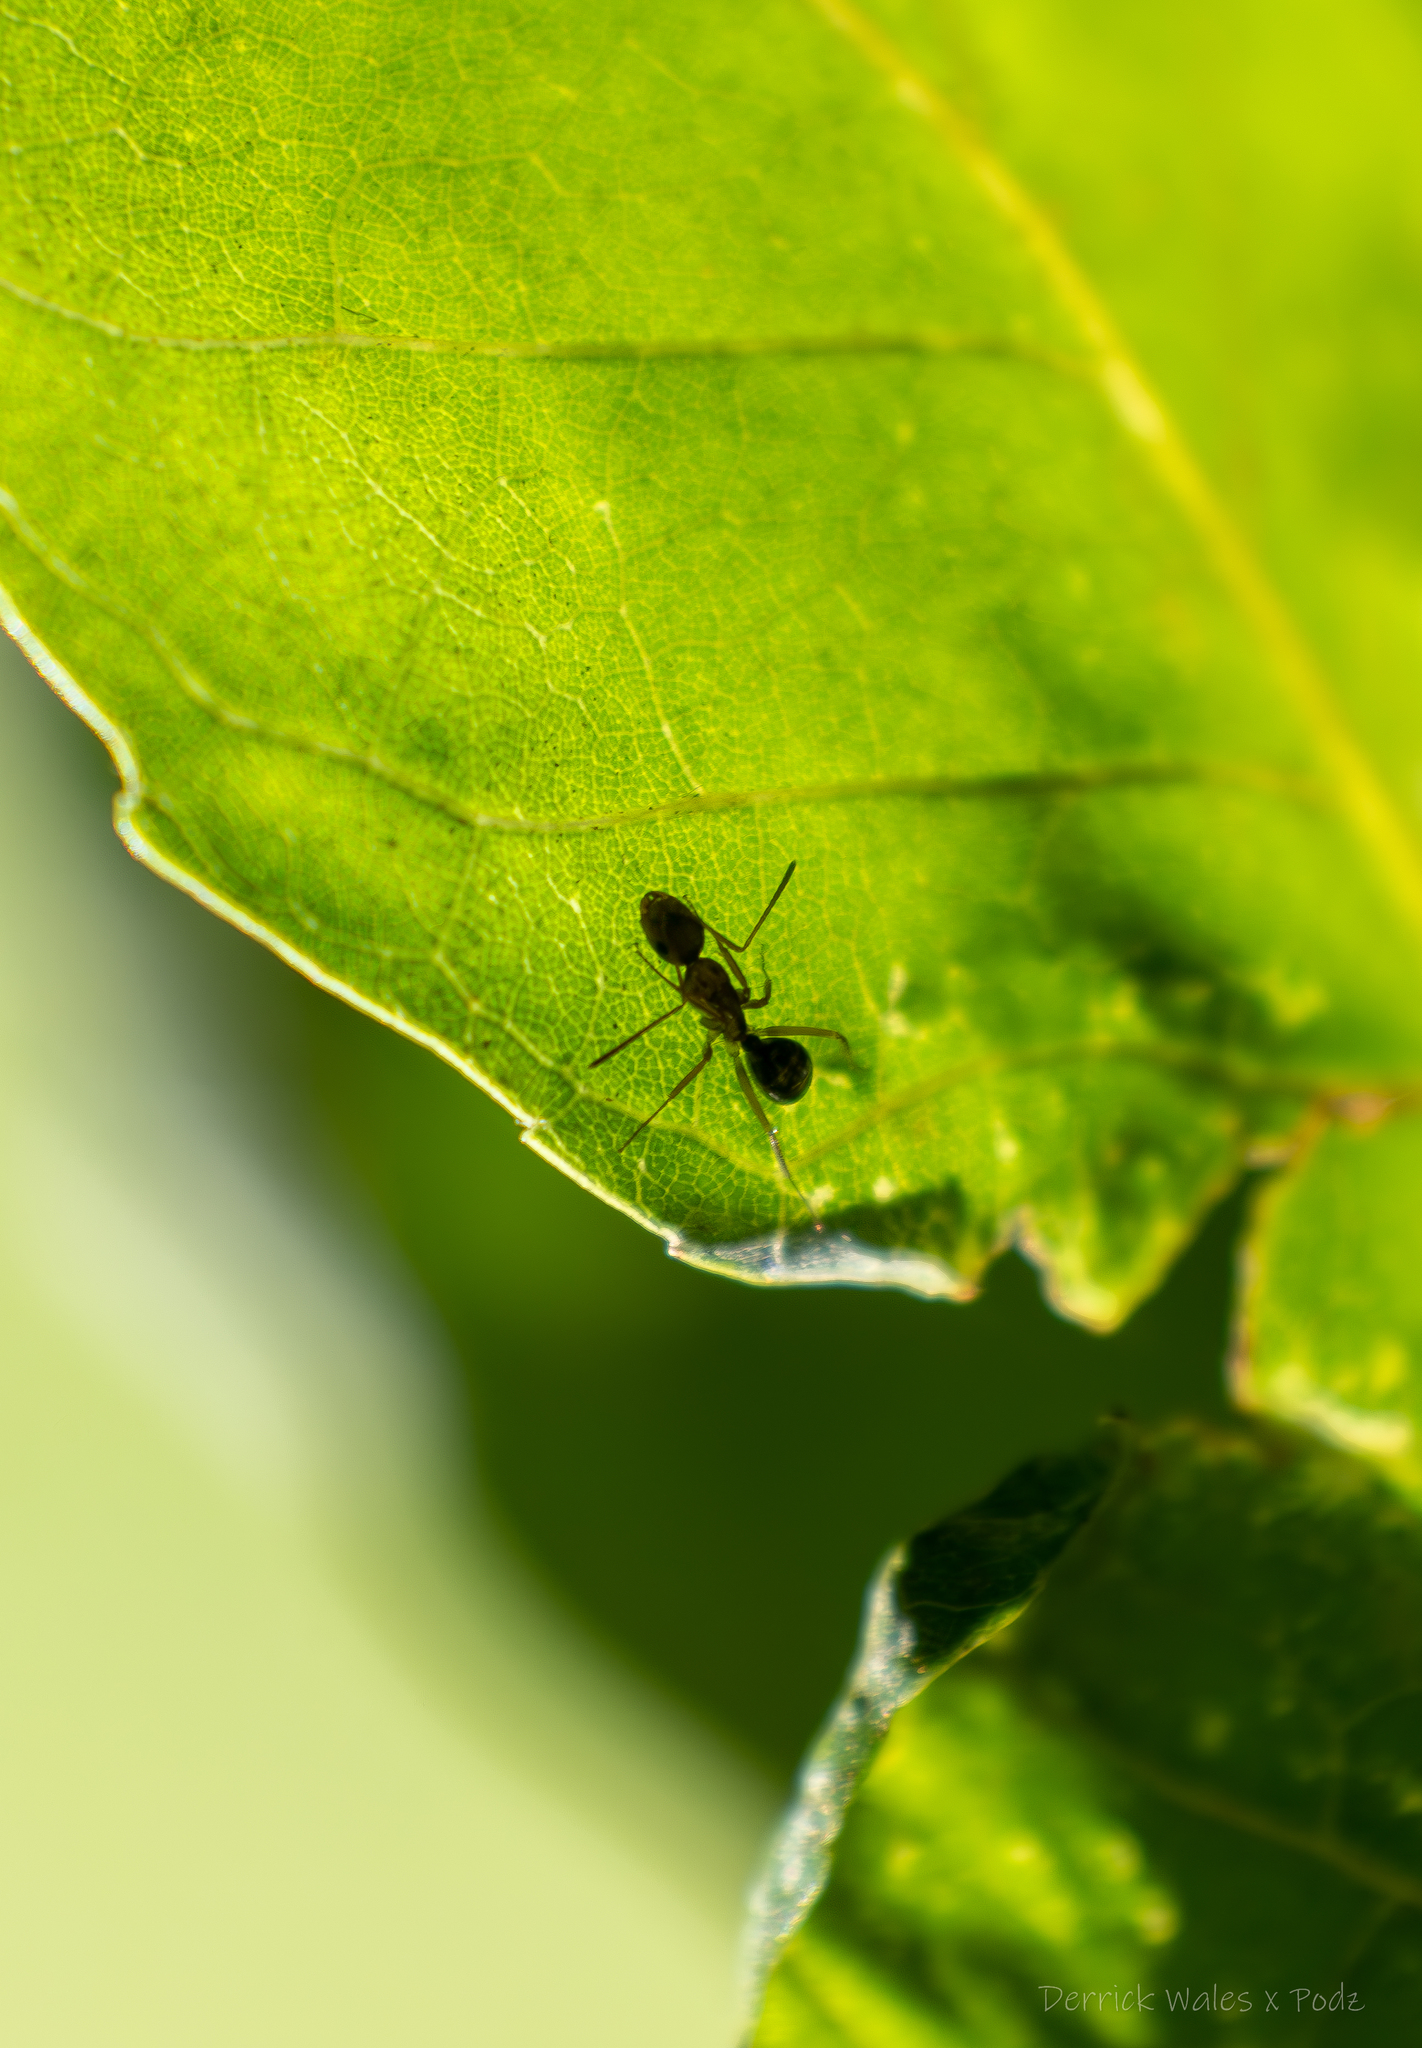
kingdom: Animalia
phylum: Arthropoda
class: Insecta
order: Hymenoptera
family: Formicidae
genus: Camponotus
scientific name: Camponotus subbarbatus
